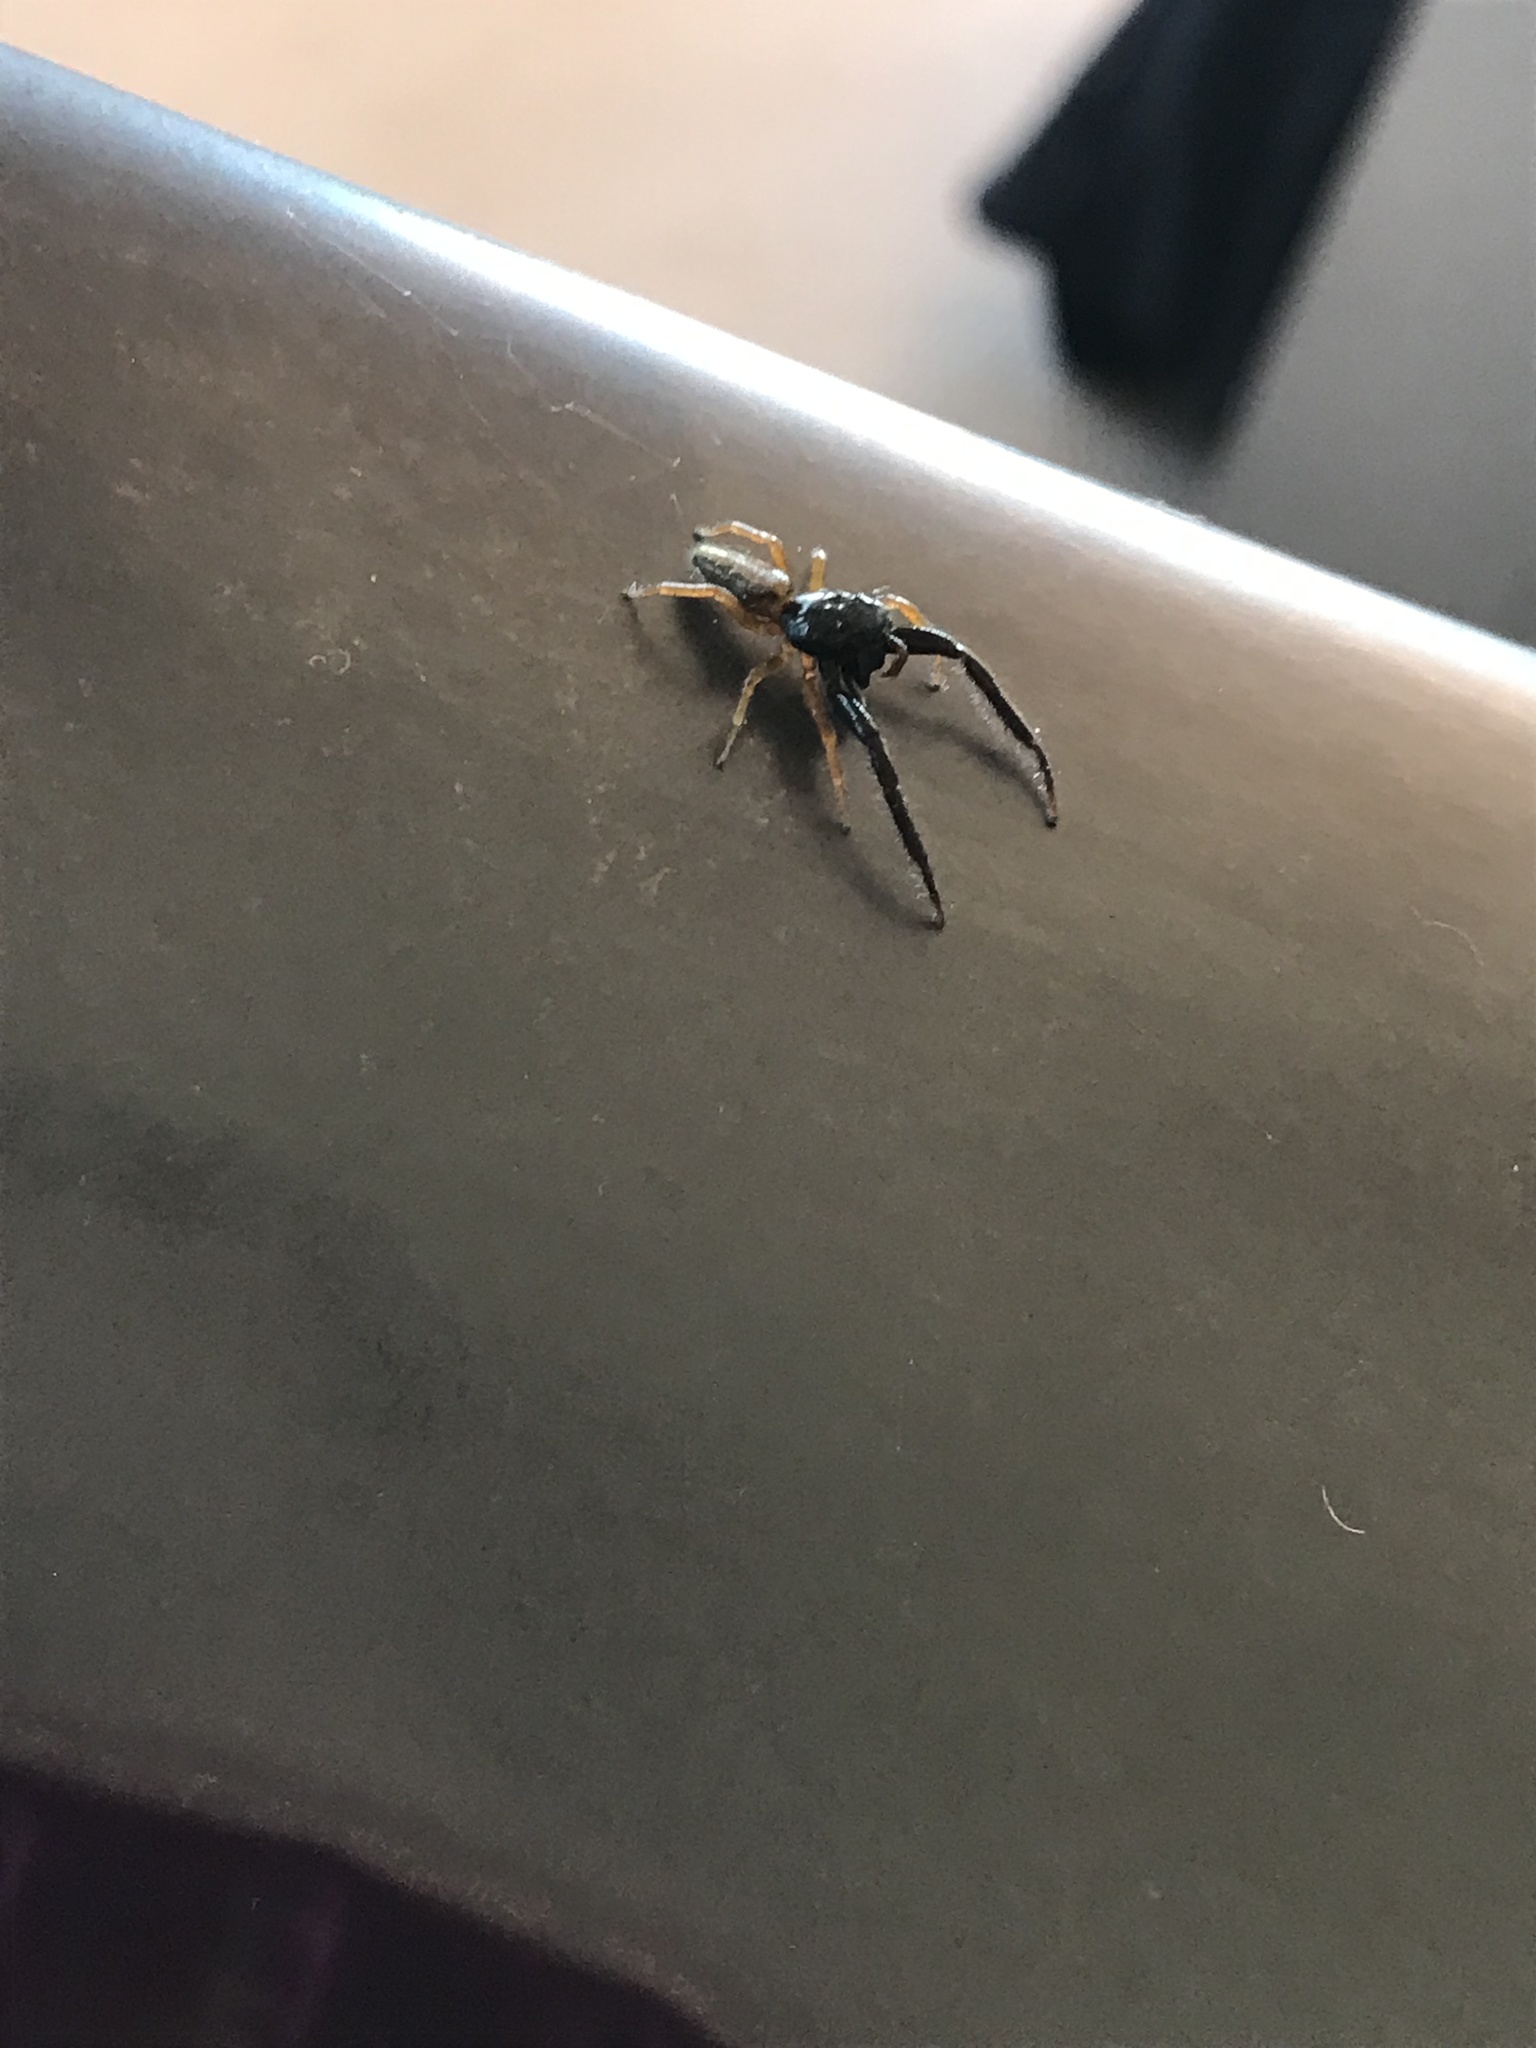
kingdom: Animalia
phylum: Arthropoda
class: Arachnida
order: Araneae
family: Salticidae
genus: Trite
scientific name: Trite planiceps
